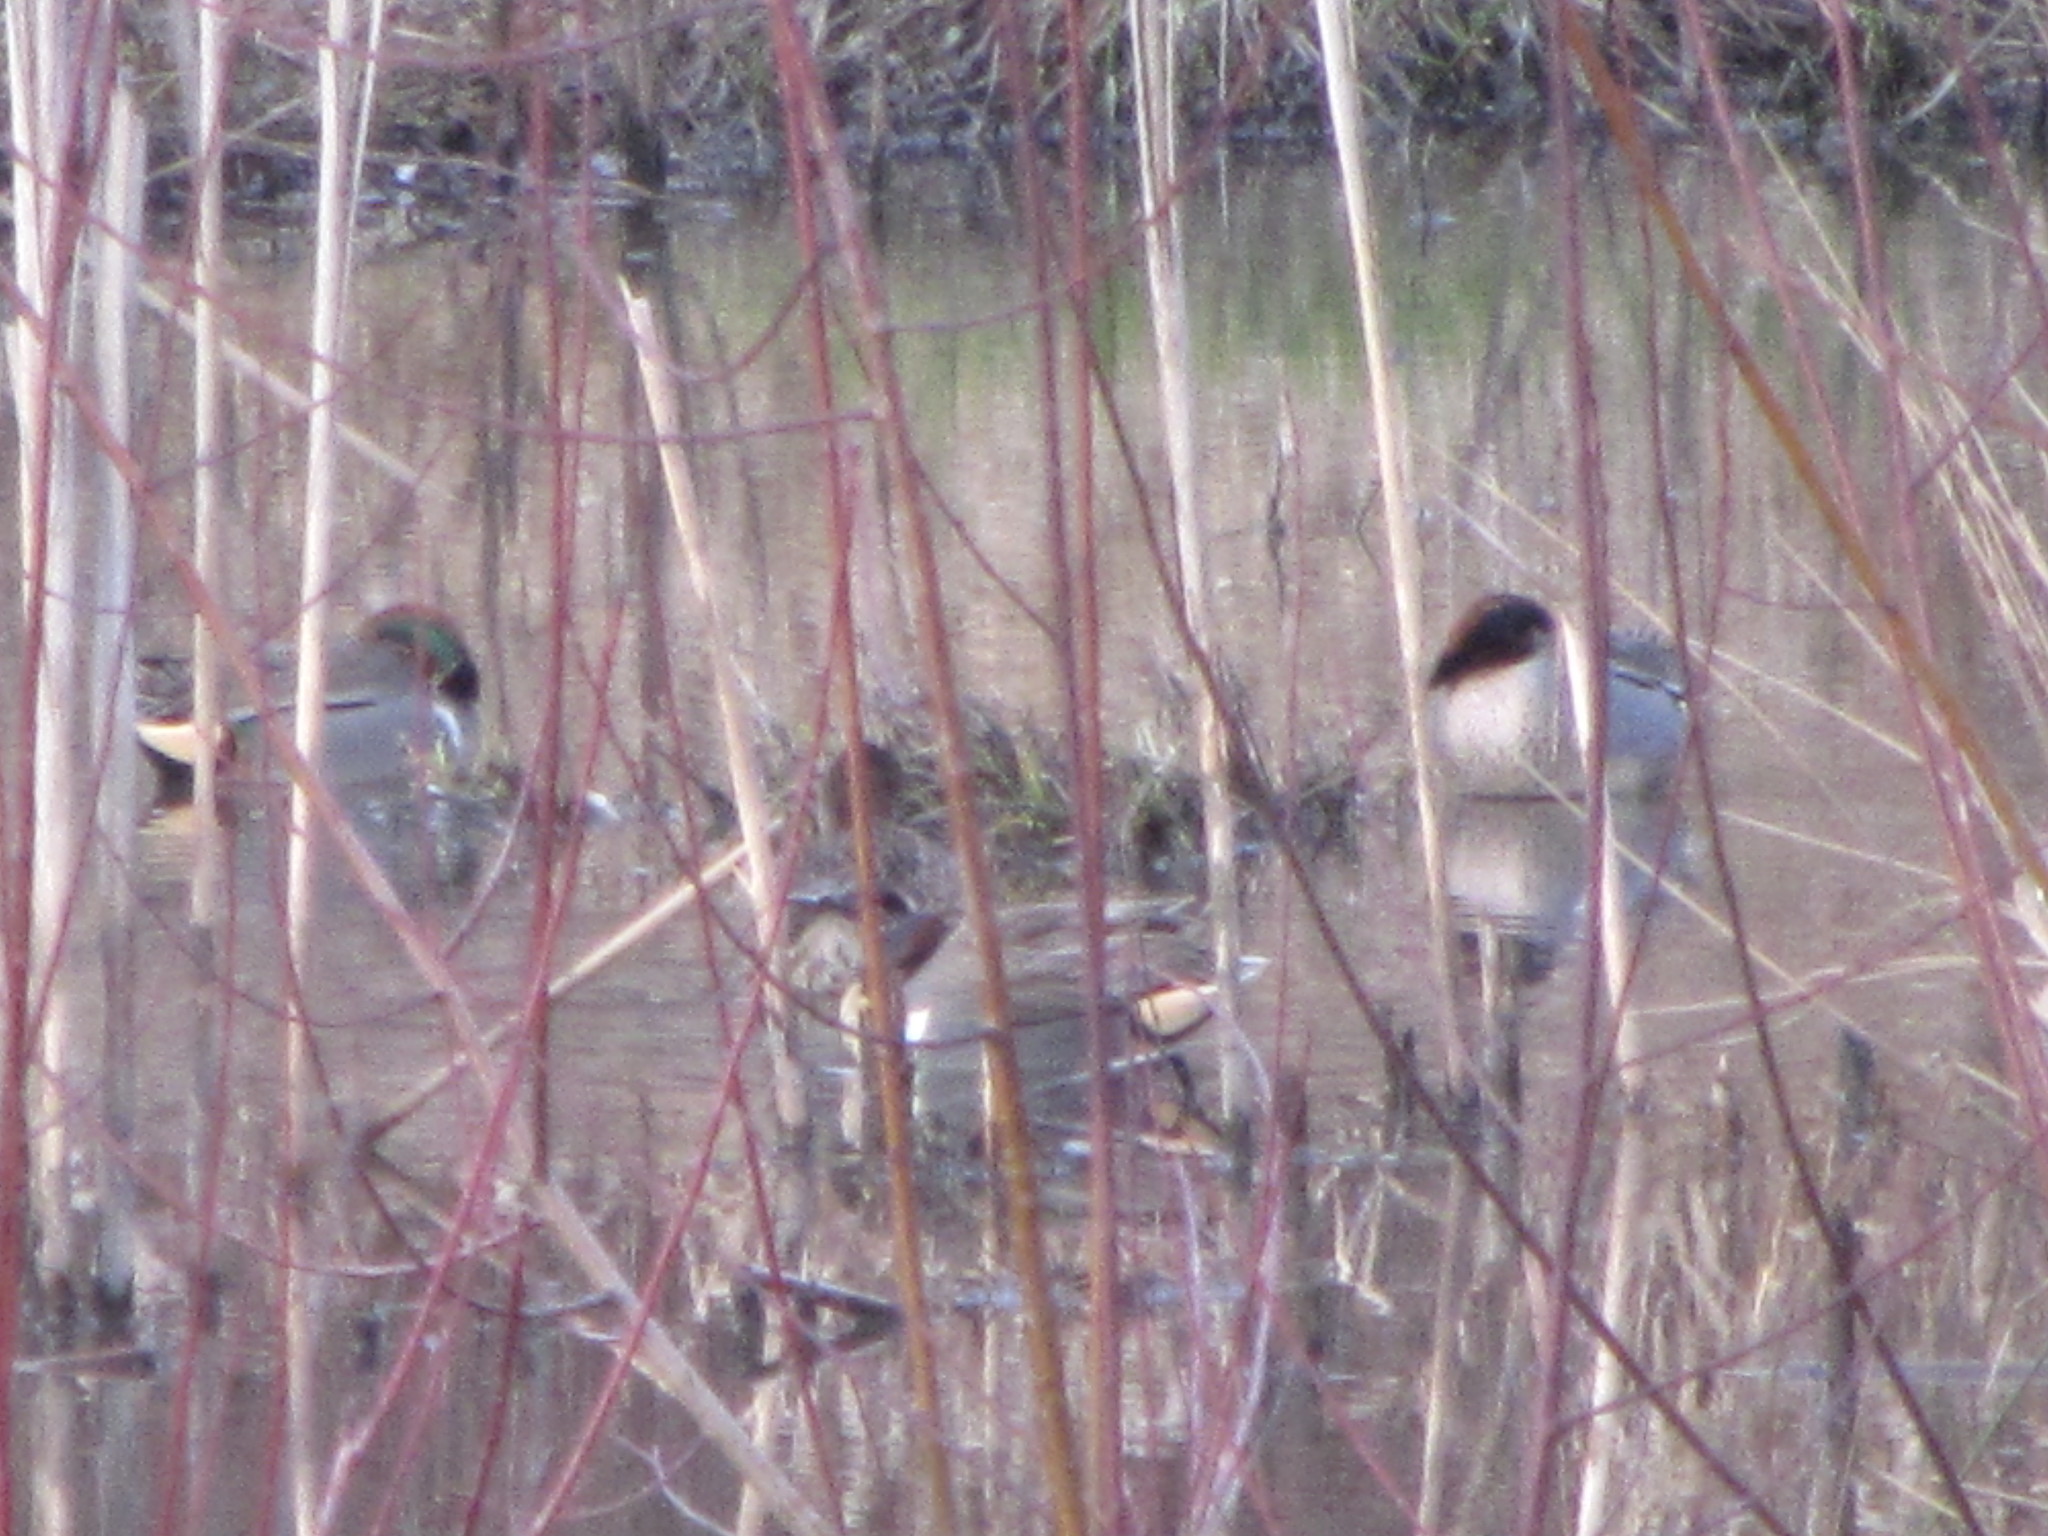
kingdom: Animalia
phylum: Chordata
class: Aves
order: Anseriformes
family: Anatidae
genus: Anas
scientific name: Anas crecca
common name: Eurasian teal
